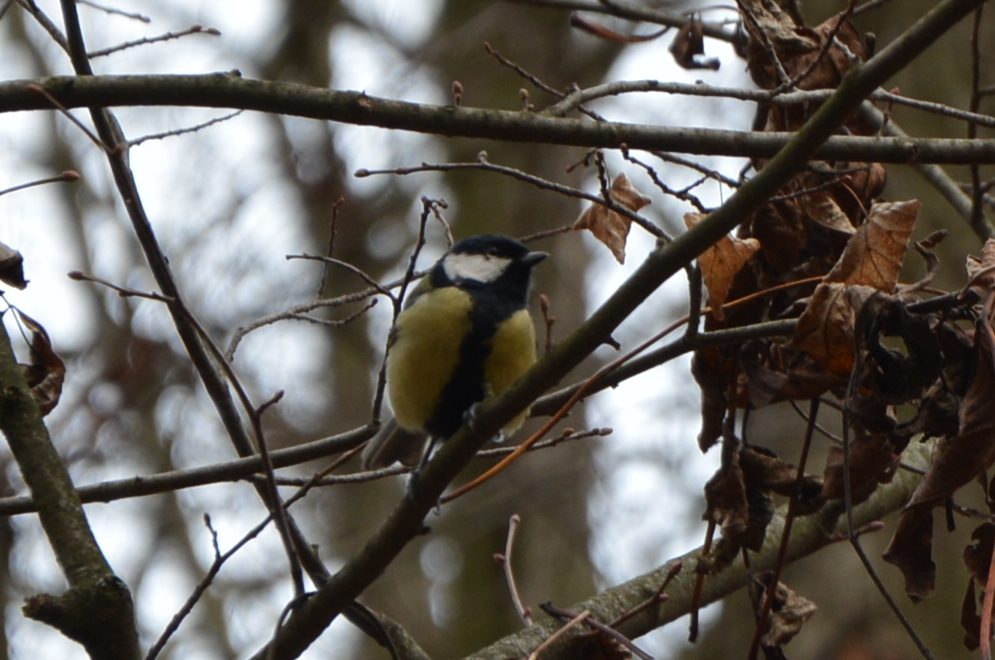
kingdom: Animalia
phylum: Chordata
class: Aves
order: Passeriformes
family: Paridae
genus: Parus
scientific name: Parus major
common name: Great tit
